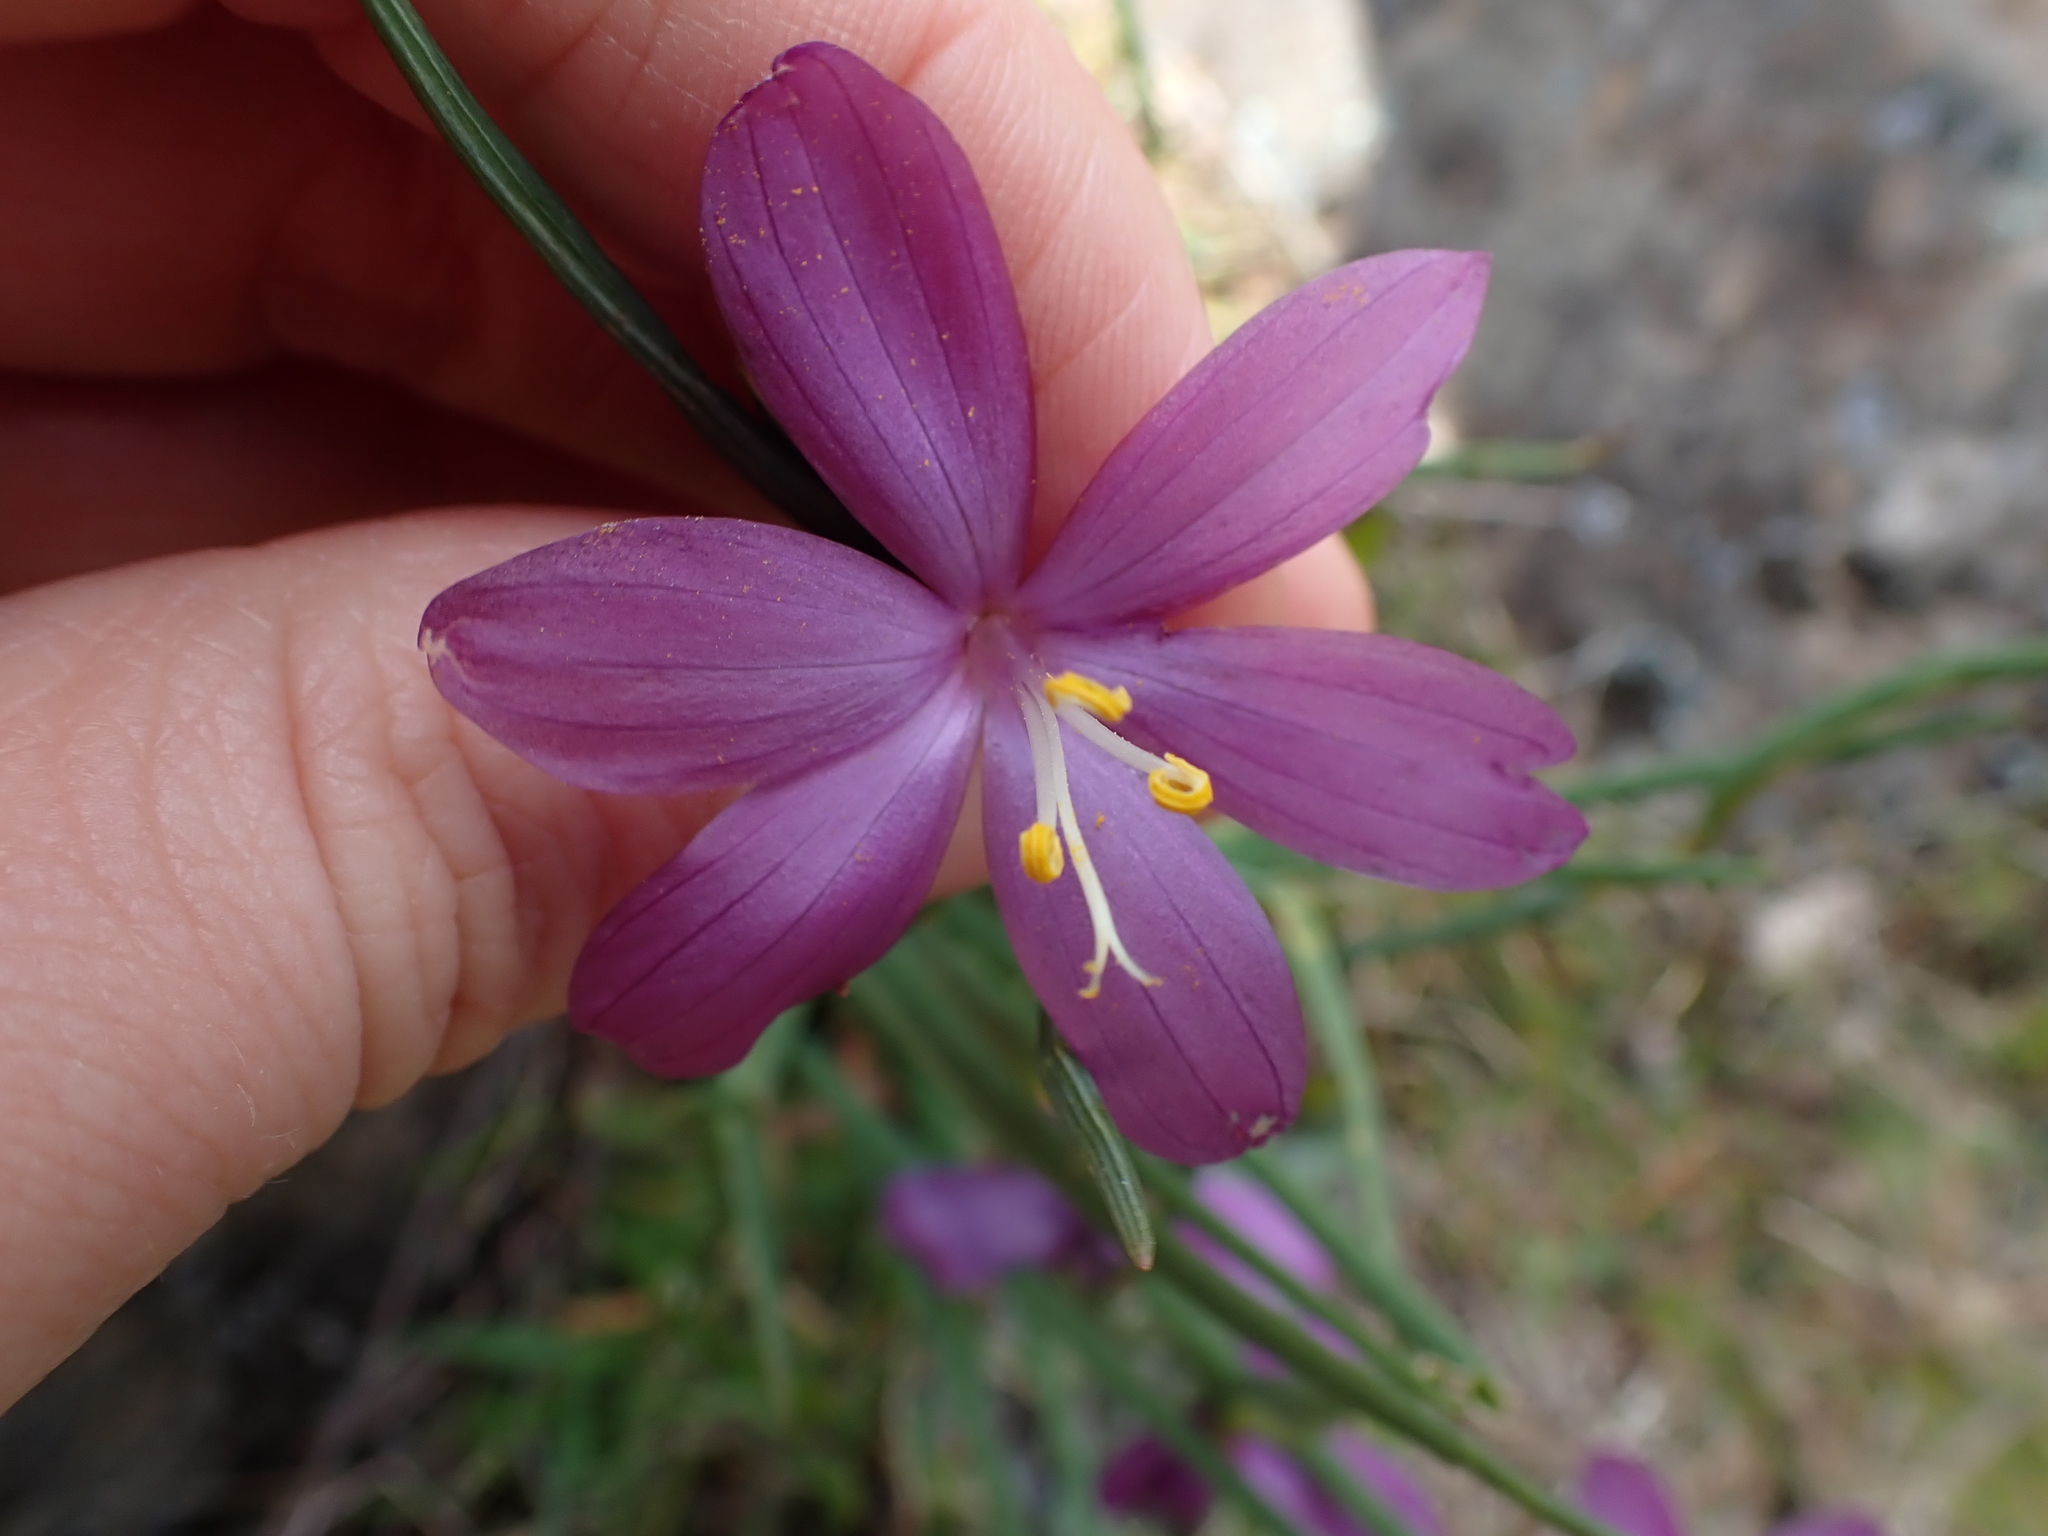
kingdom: Plantae
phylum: Tracheophyta
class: Liliopsida
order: Asparagales
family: Iridaceae
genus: Olsynium
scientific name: Olsynium douglasii
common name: Douglas' grasswidow
